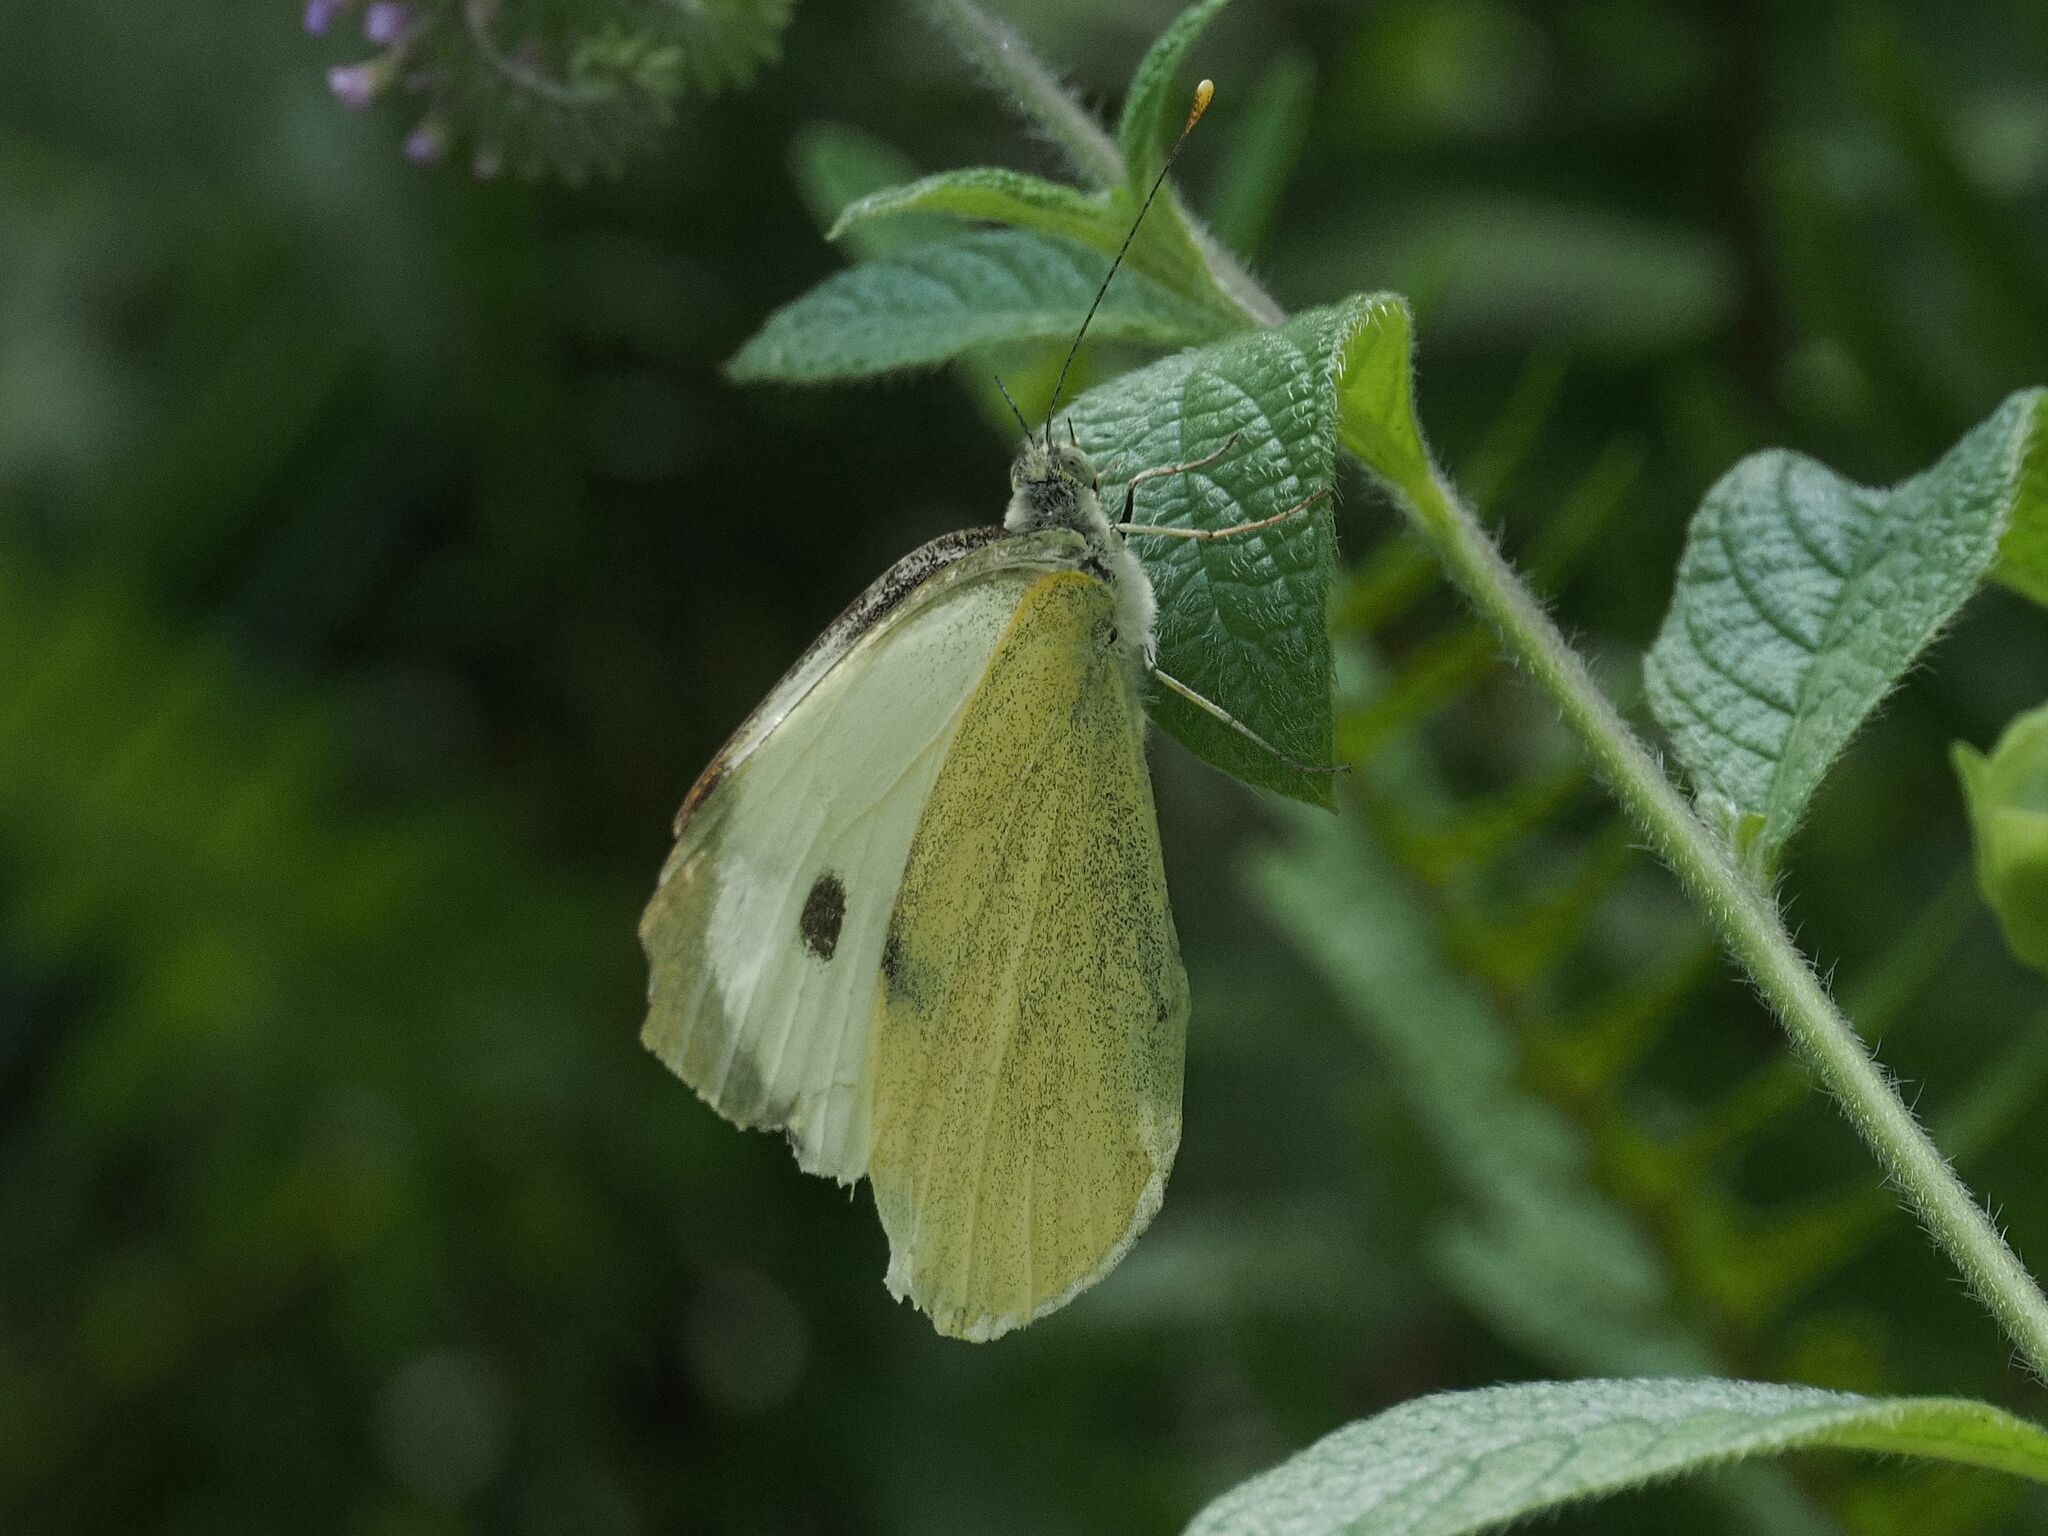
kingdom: Animalia
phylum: Arthropoda
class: Insecta
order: Lepidoptera
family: Pieridae
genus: Pieris
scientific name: Pieris brassicae
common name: Large white
